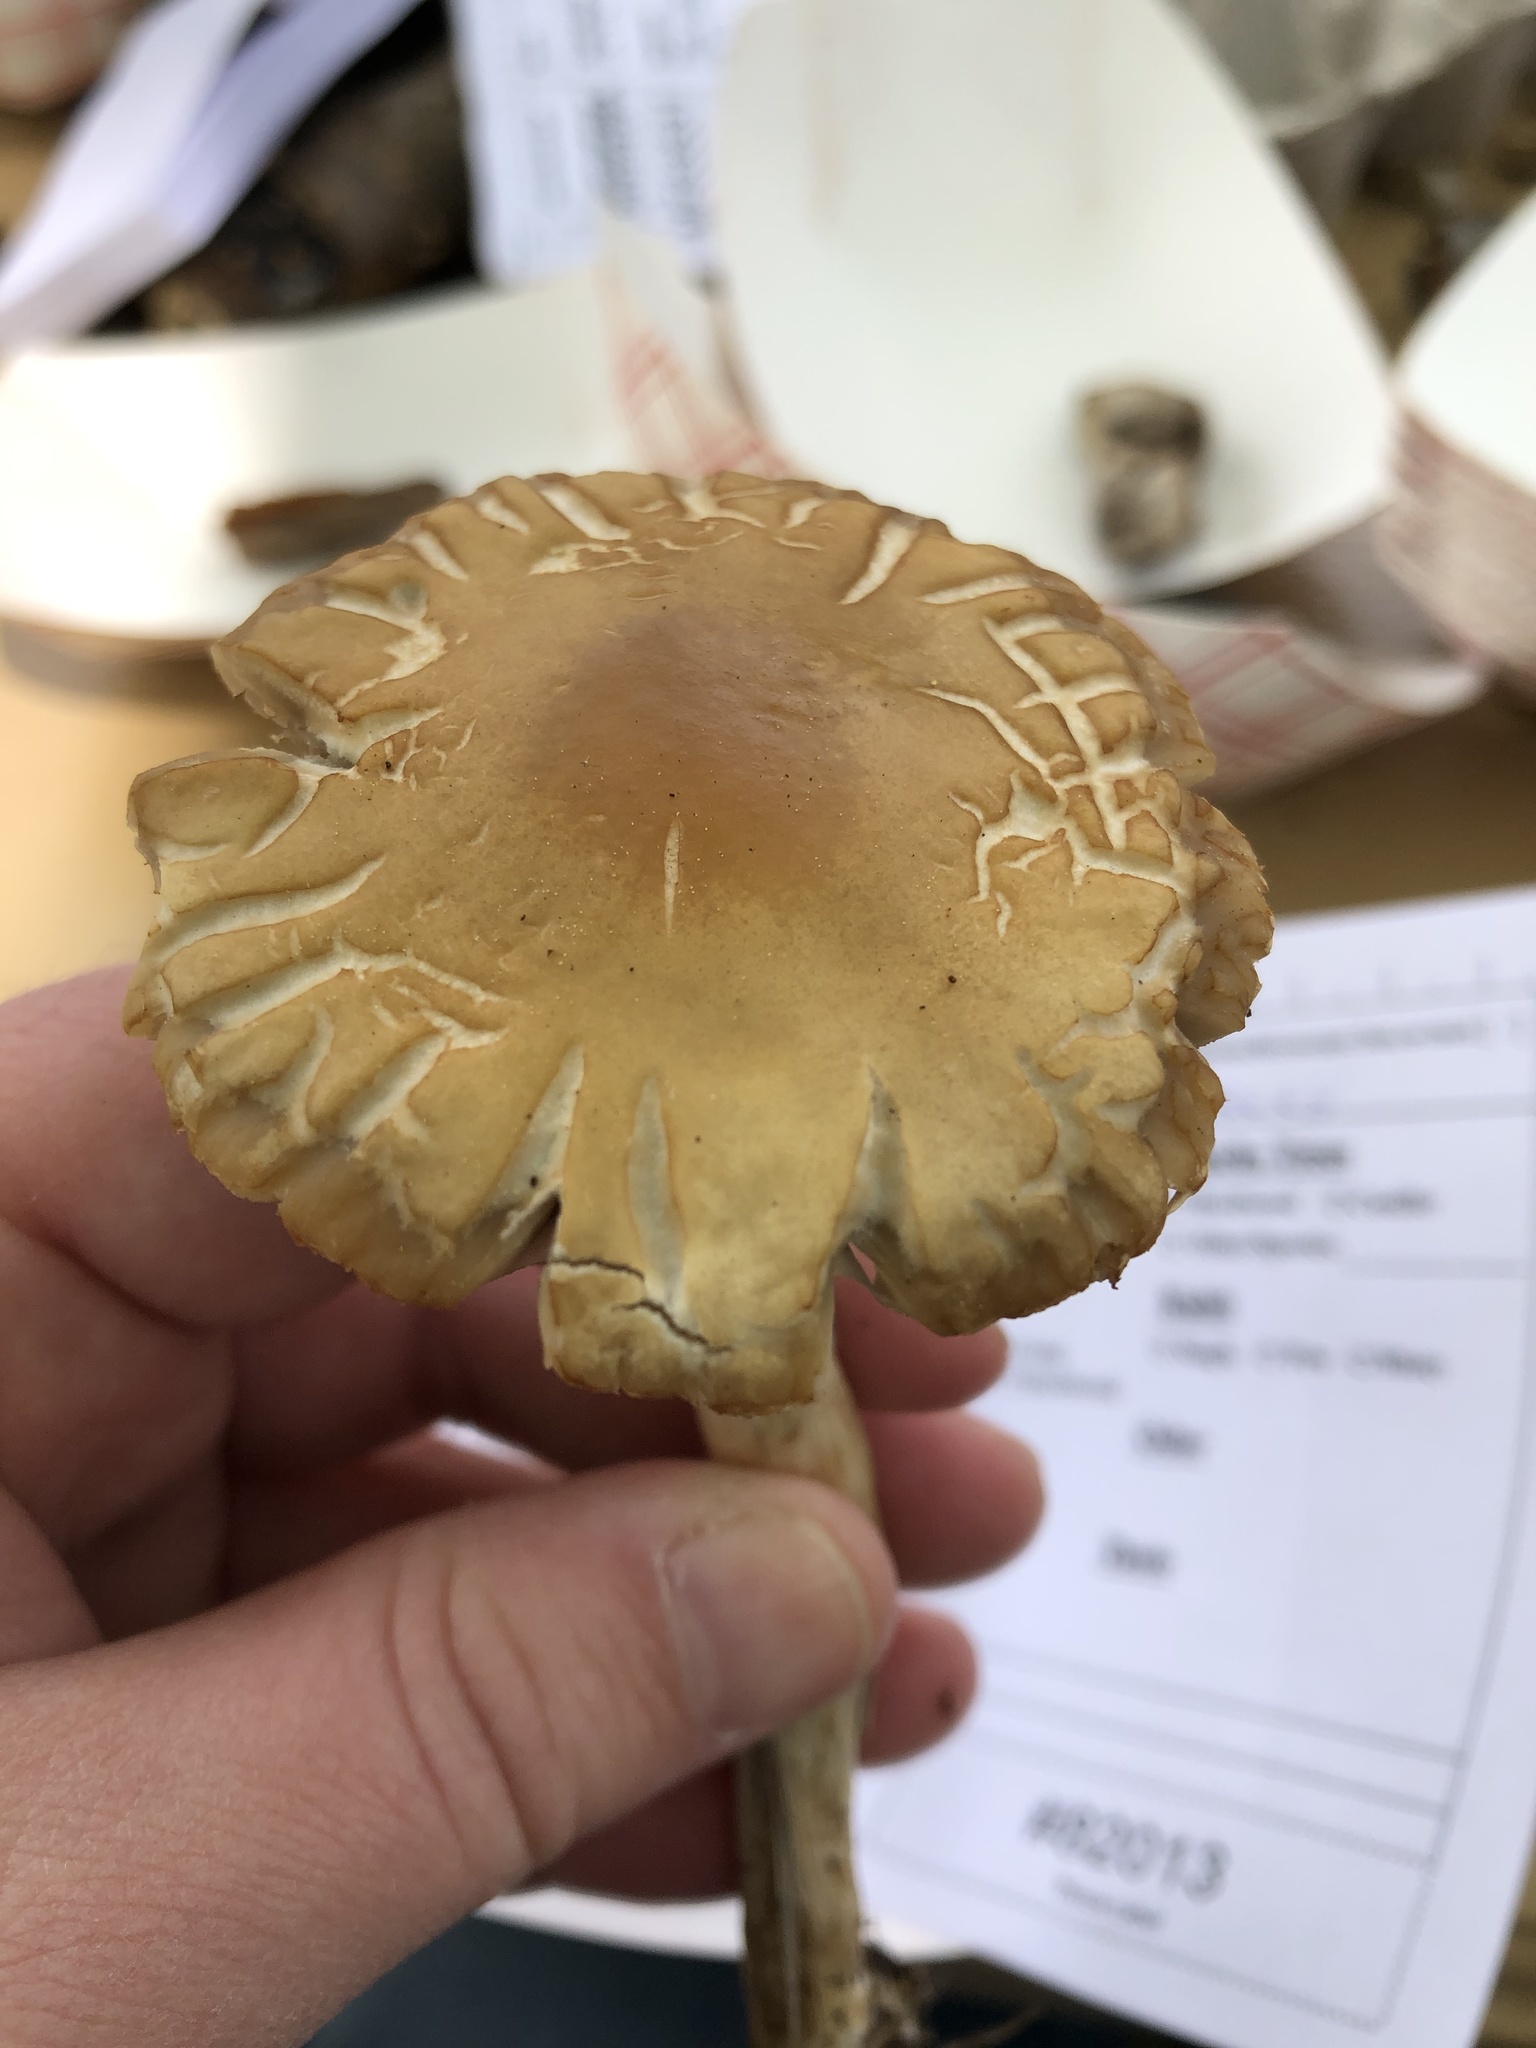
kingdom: Fungi
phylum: Basidiomycota
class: Agaricomycetes
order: Agaricales
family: Strophariaceae
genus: Agrocybe
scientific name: Agrocybe praecox
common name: Spring fieldcap
